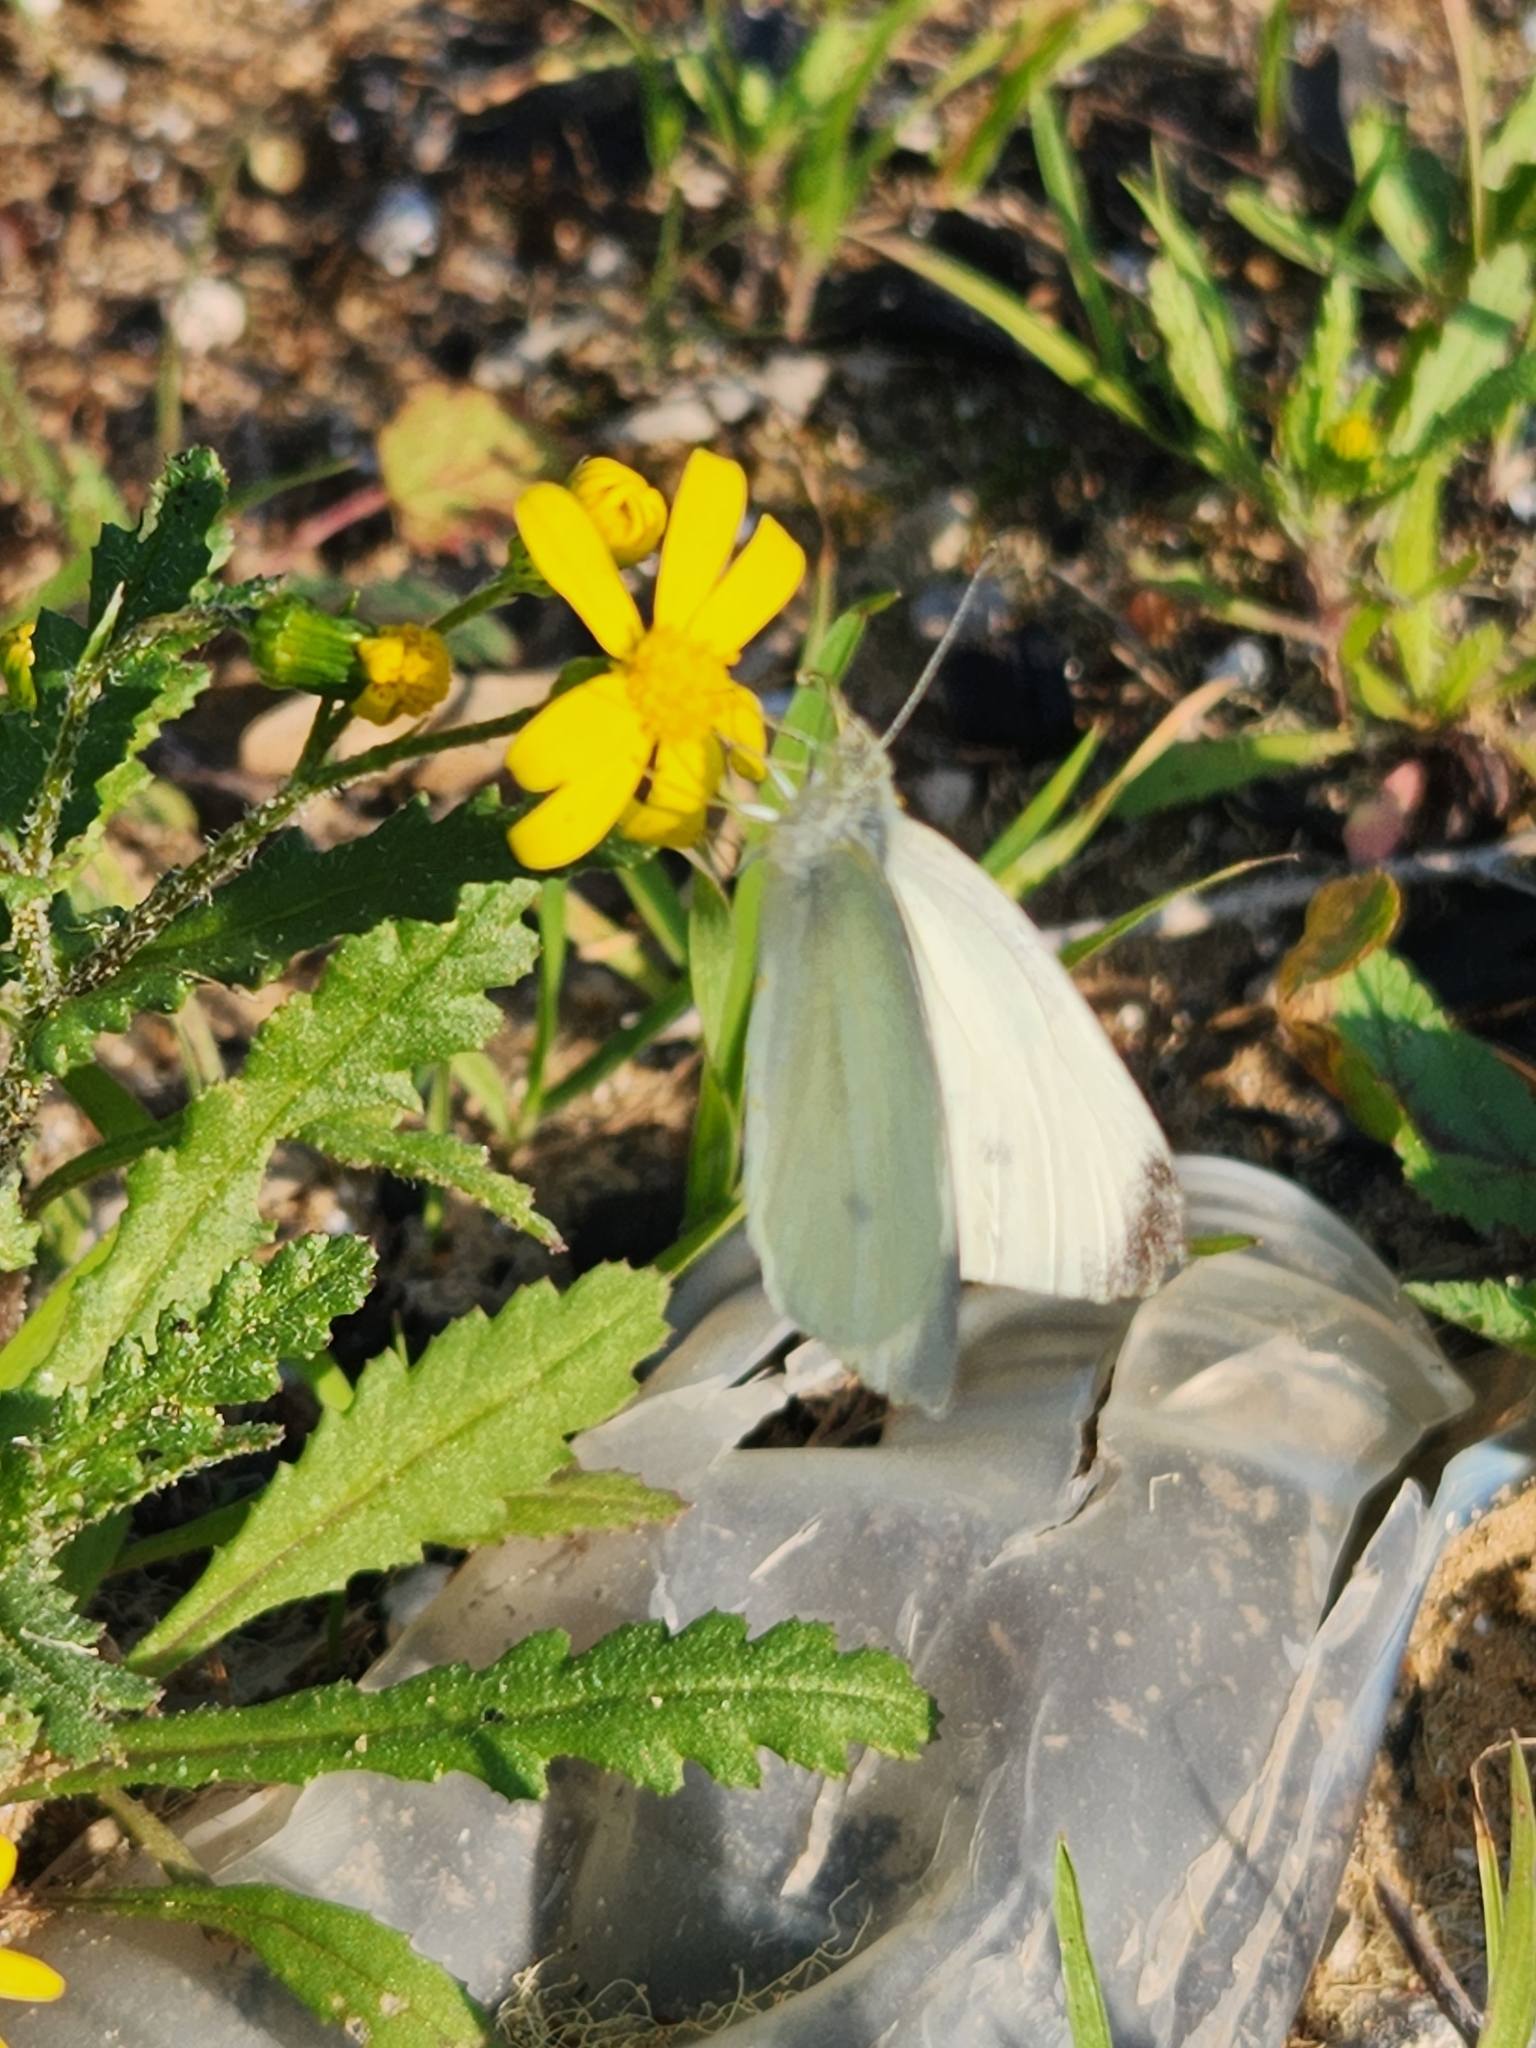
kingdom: Animalia
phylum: Arthropoda
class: Insecta
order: Lepidoptera
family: Pieridae
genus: Pieris
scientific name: Pieris rapae
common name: Small white
